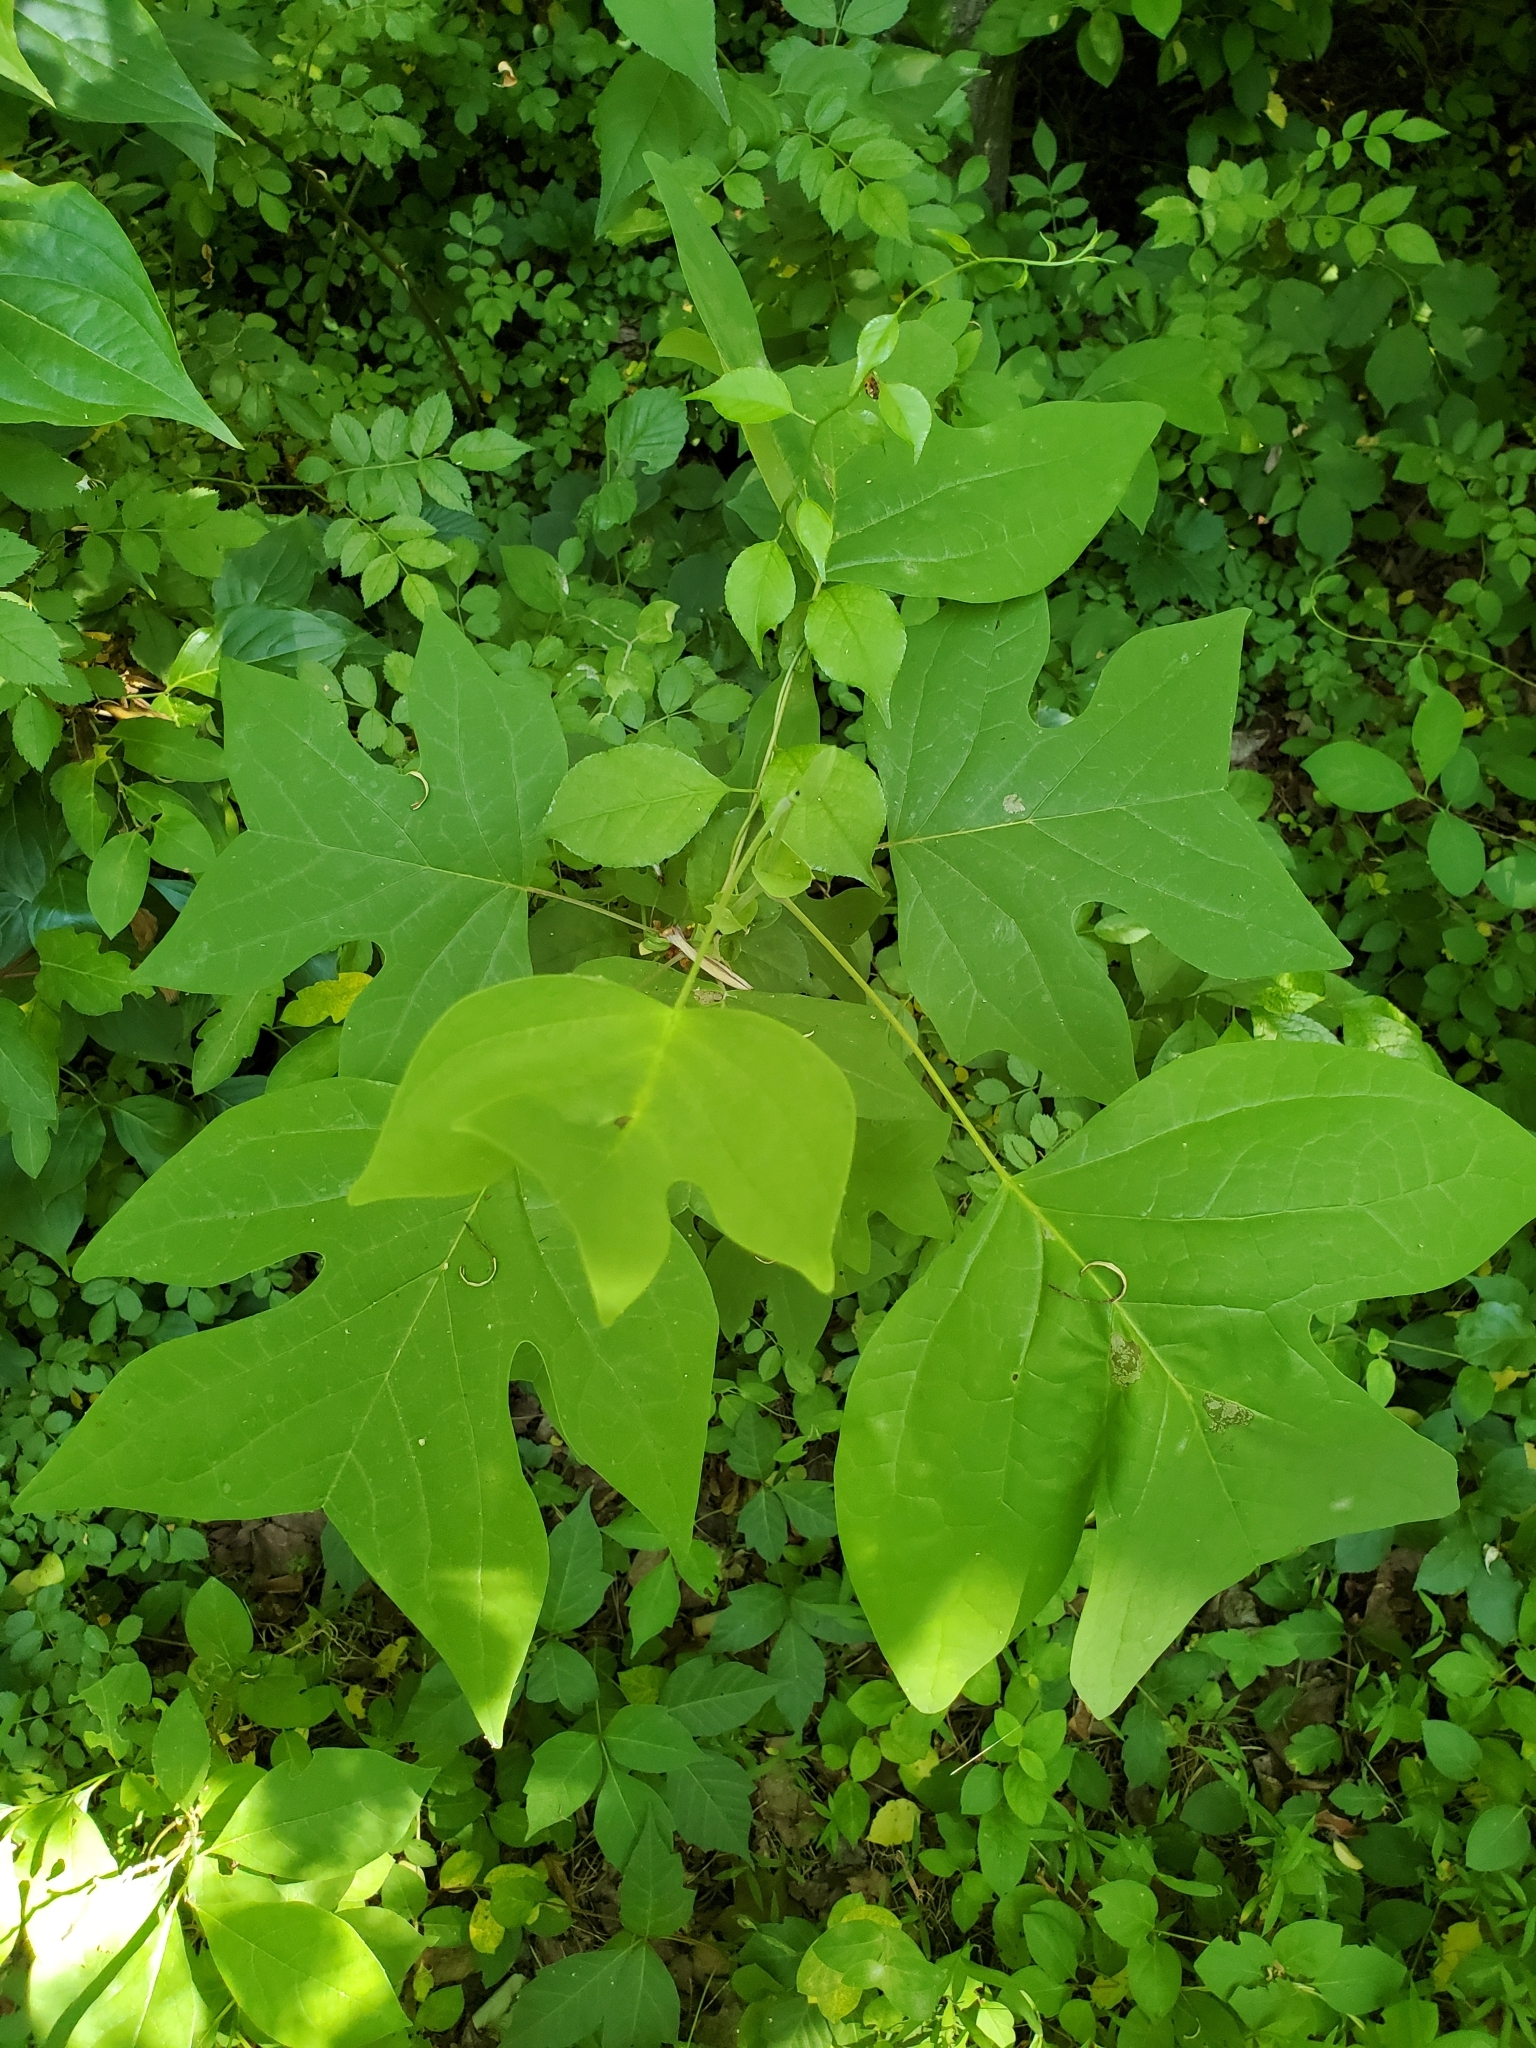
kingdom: Plantae
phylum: Tracheophyta
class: Magnoliopsida
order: Magnoliales
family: Magnoliaceae
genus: Liriodendron
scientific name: Liriodendron tulipifera
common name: Tulip tree
